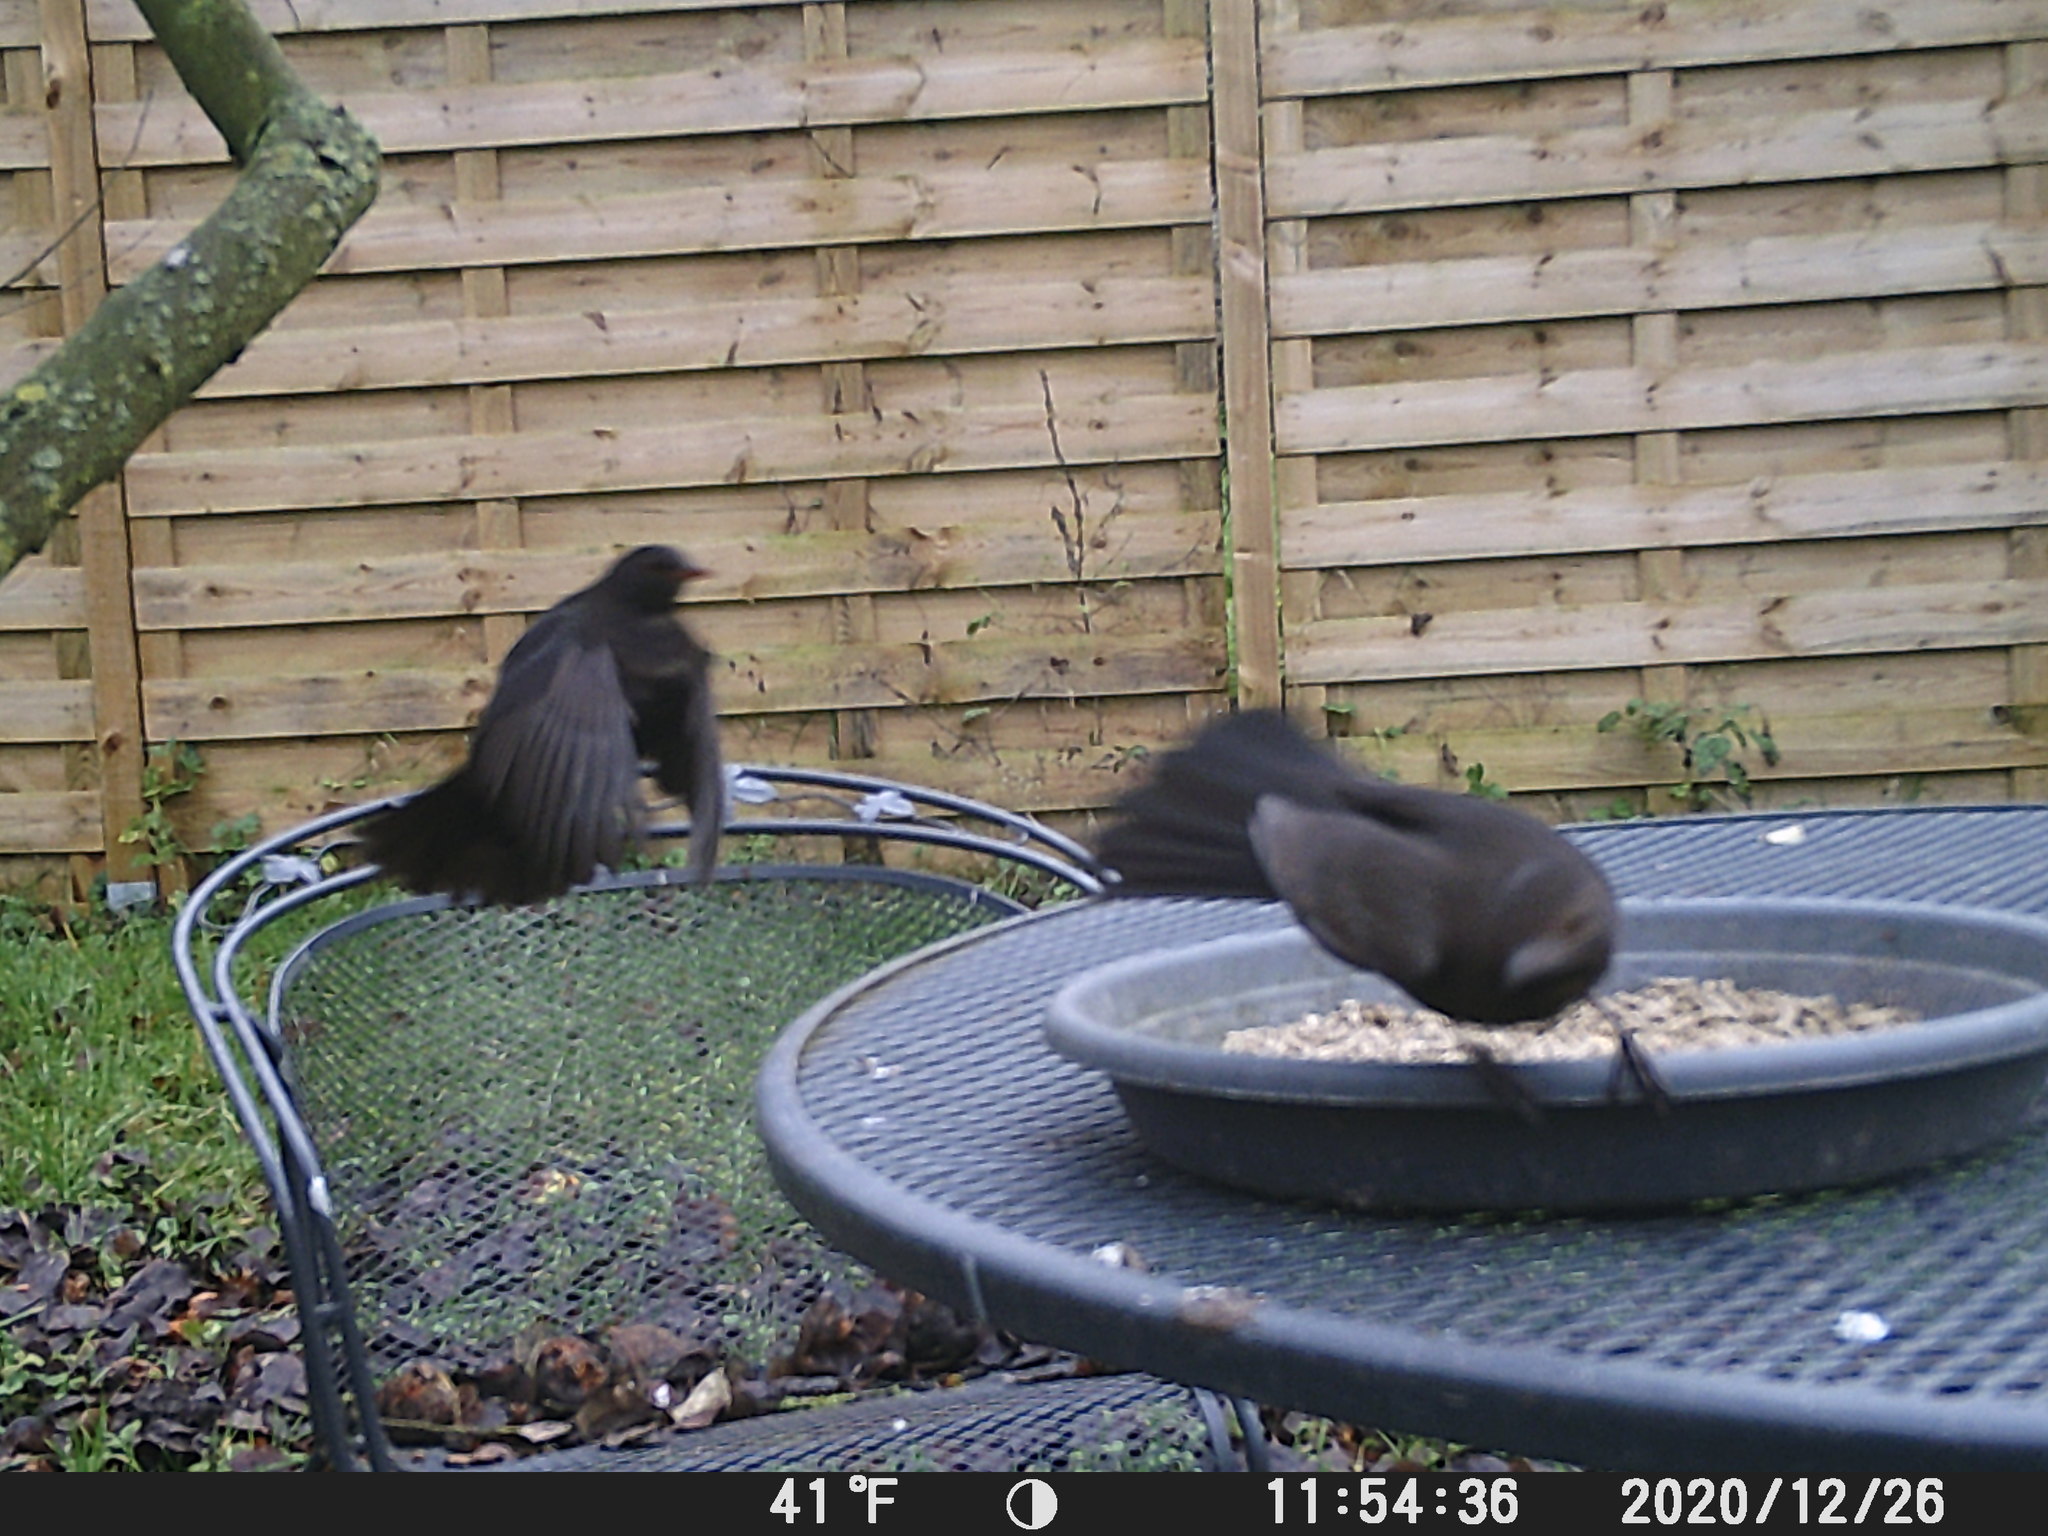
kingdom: Animalia
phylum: Chordata
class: Aves
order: Passeriformes
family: Turdidae
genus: Turdus
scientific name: Turdus merula
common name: Common blackbird
